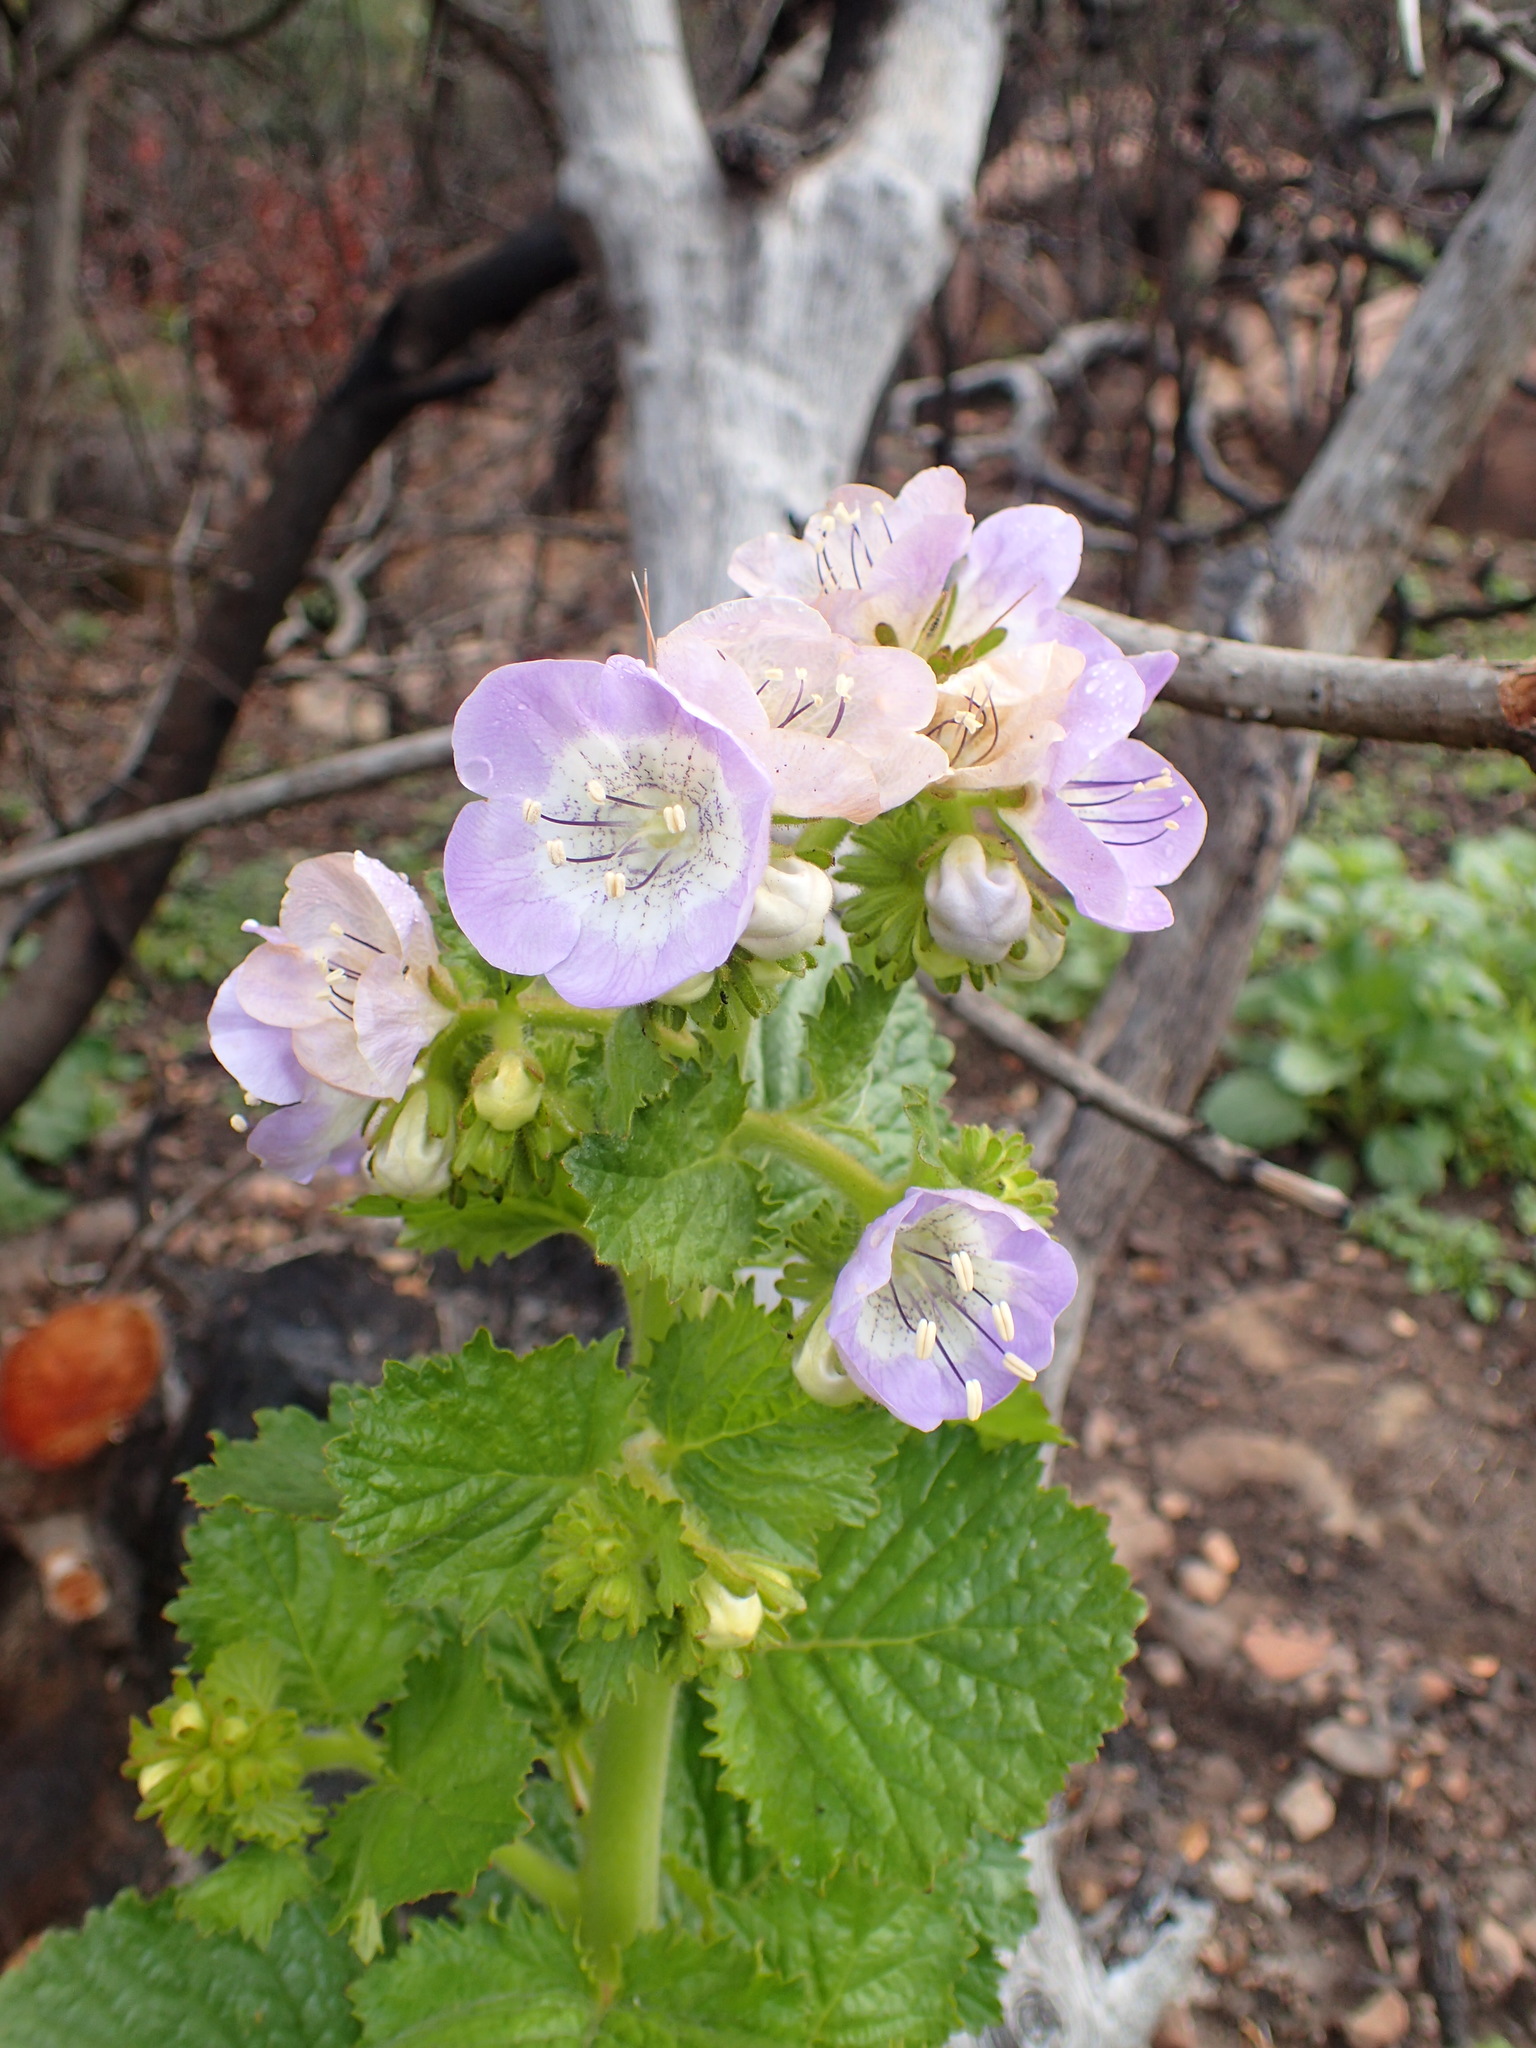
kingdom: Plantae
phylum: Tracheophyta
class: Magnoliopsida
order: Boraginales
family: Hydrophyllaceae
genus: Phacelia
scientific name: Phacelia grandiflora
